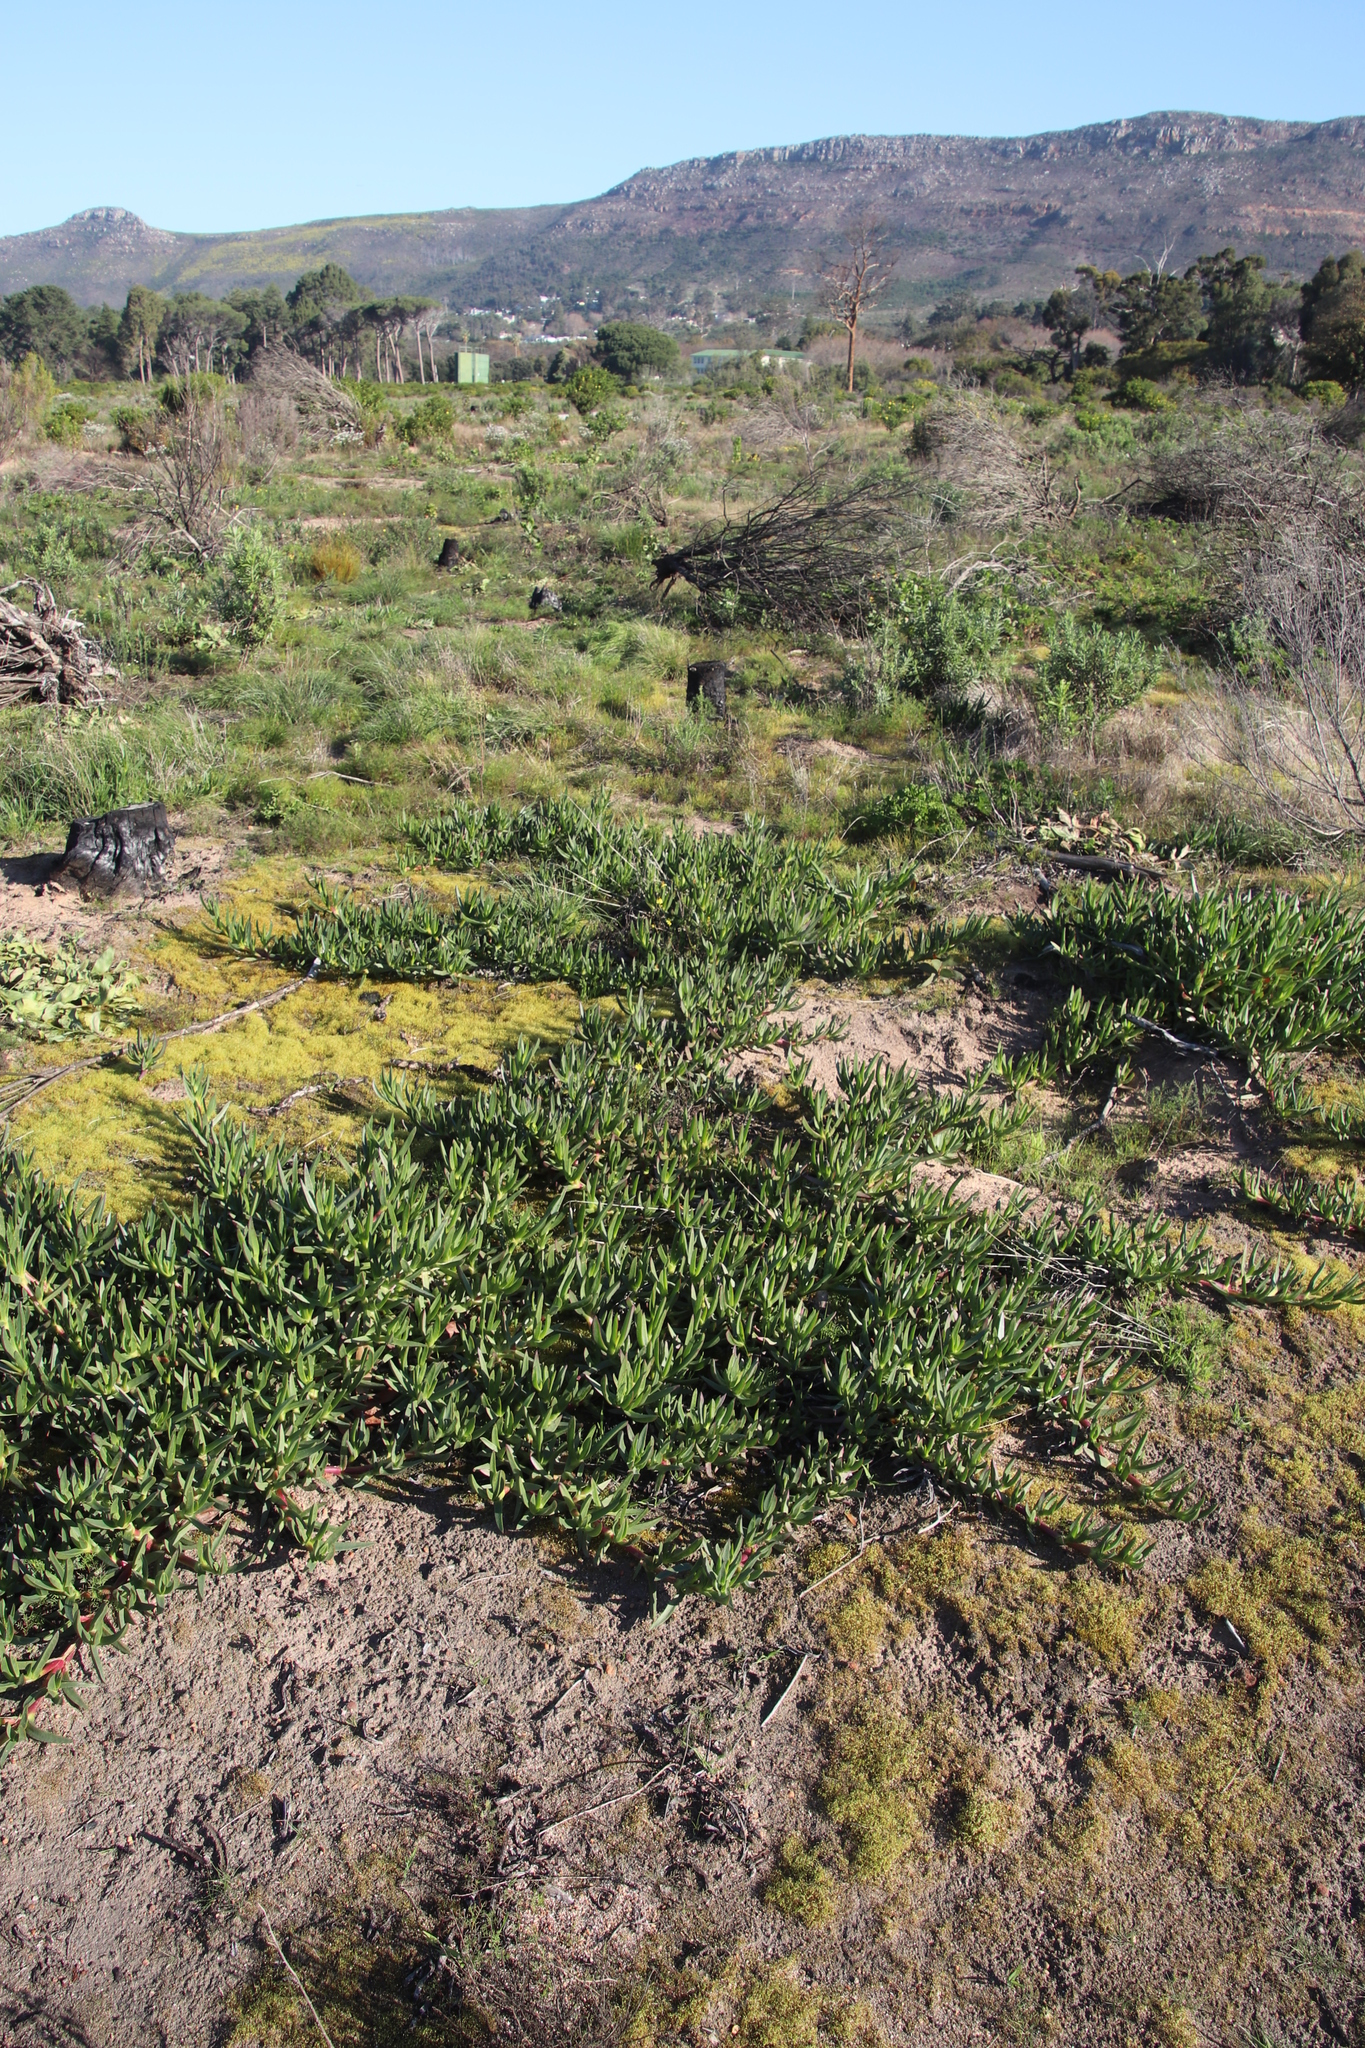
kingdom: Plantae
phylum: Tracheophyta
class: Magnoliopsida
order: Caryophyllales
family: Aizoaceae
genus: Carpobrotus
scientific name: Carpobrotus edulis
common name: Hottentot-fig
